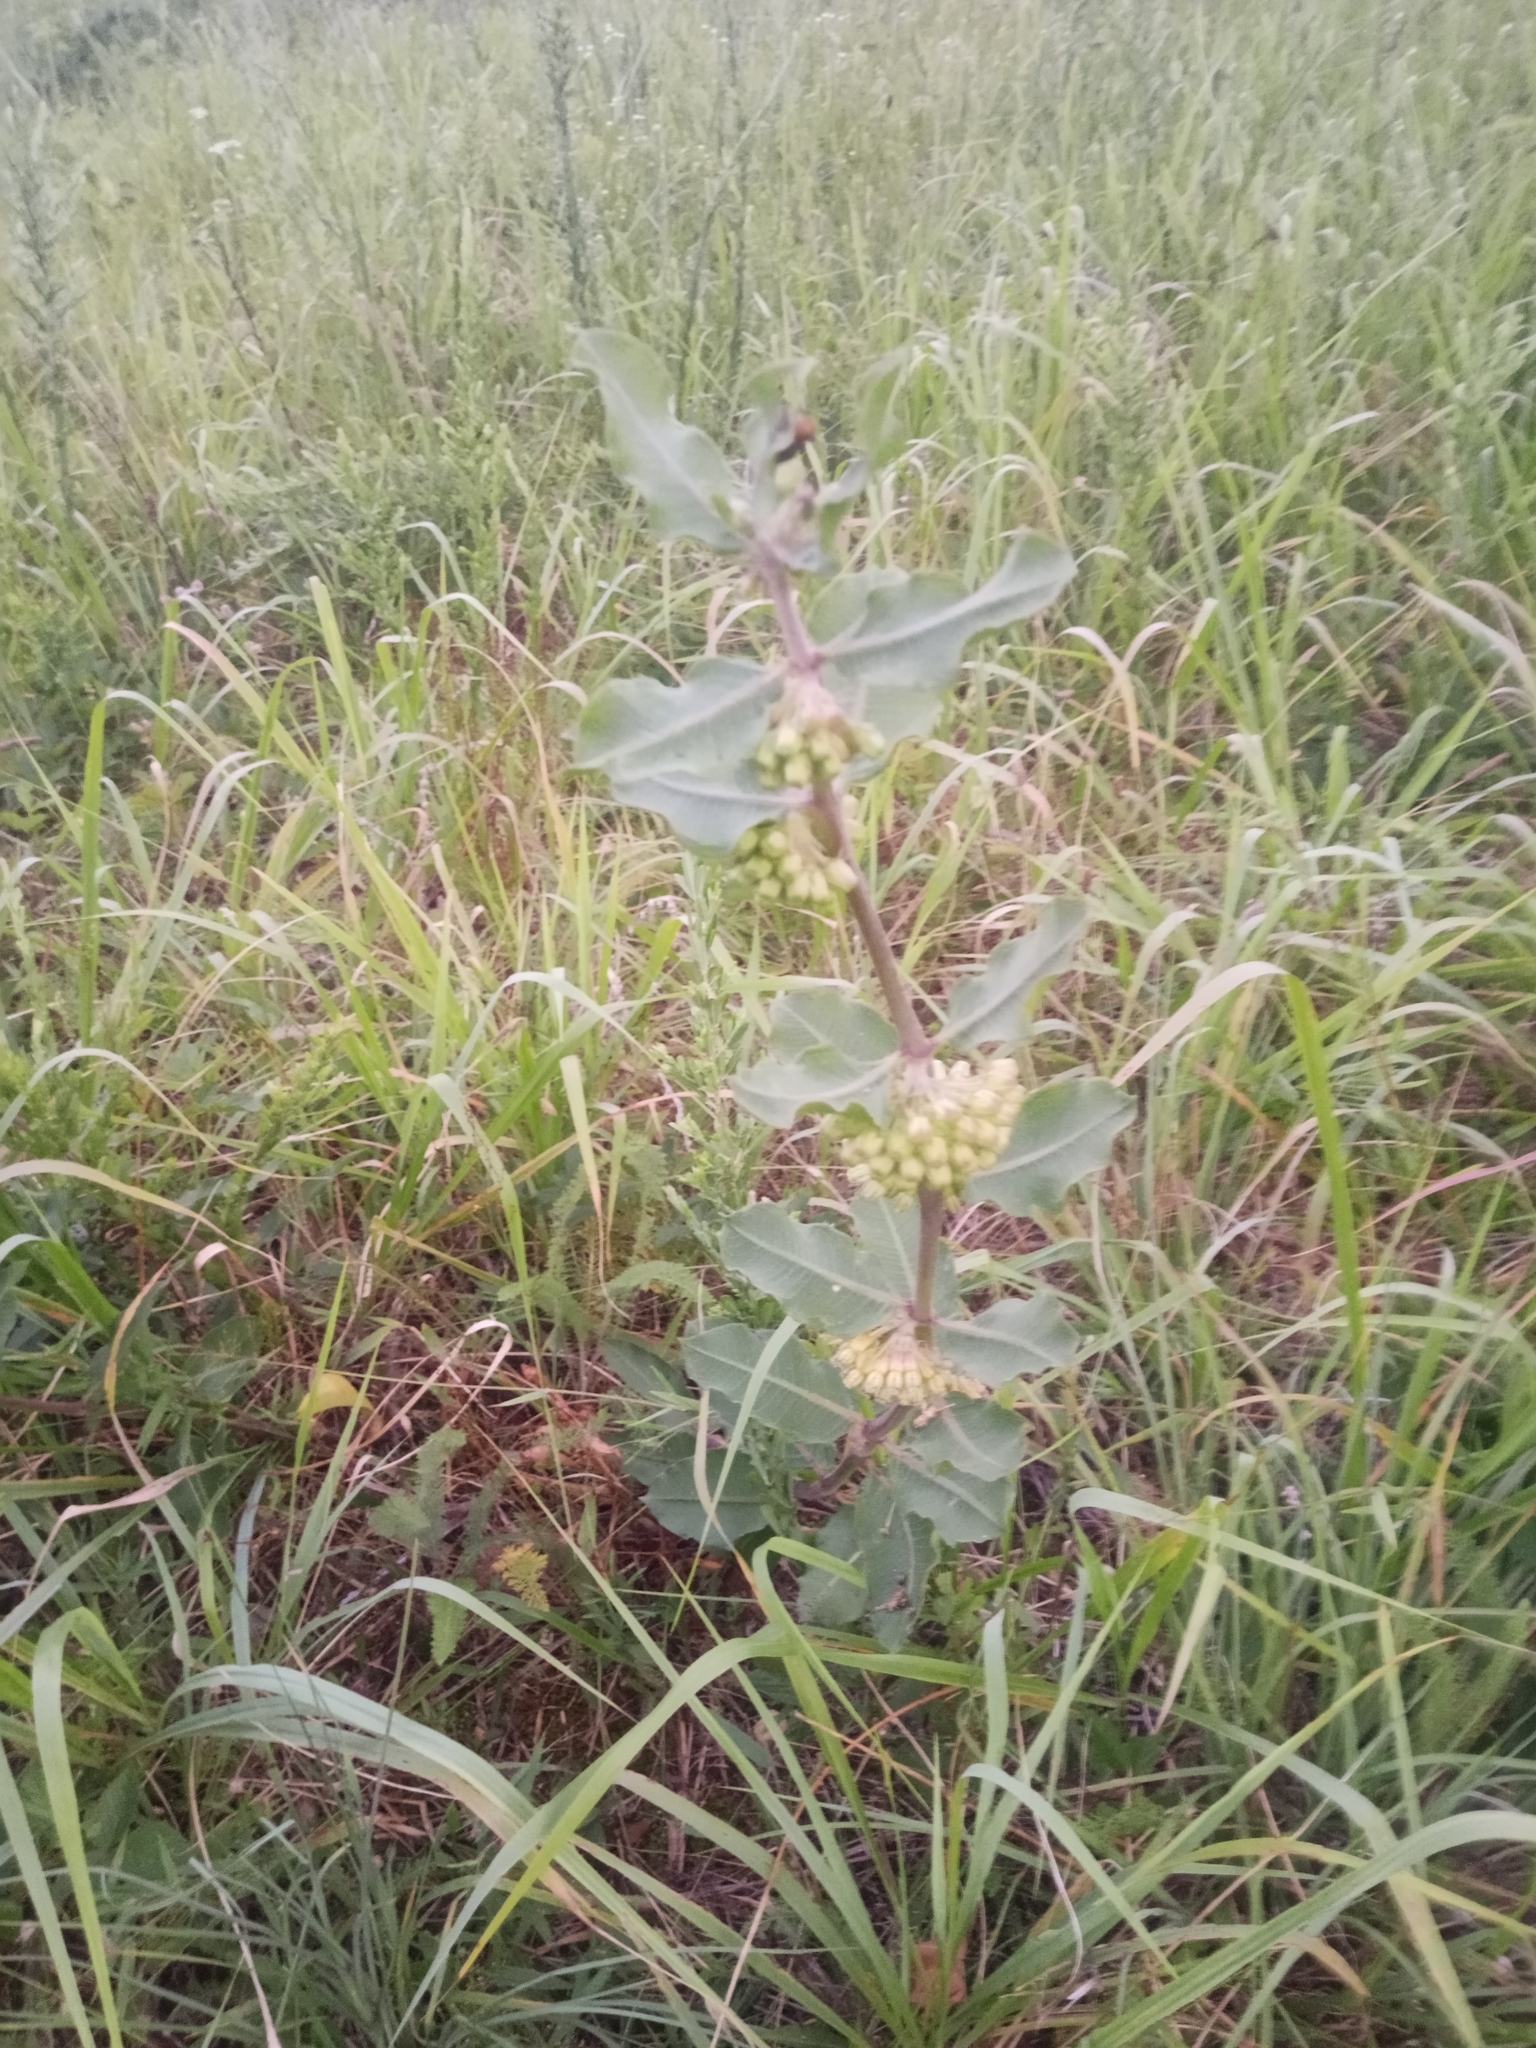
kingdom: Plantae
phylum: Tracheophyta
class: Magnoliopsida
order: Gentianales
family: Apocynaceae
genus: Asclepias
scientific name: Asclepias viridiflora
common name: Green comet milkweed
